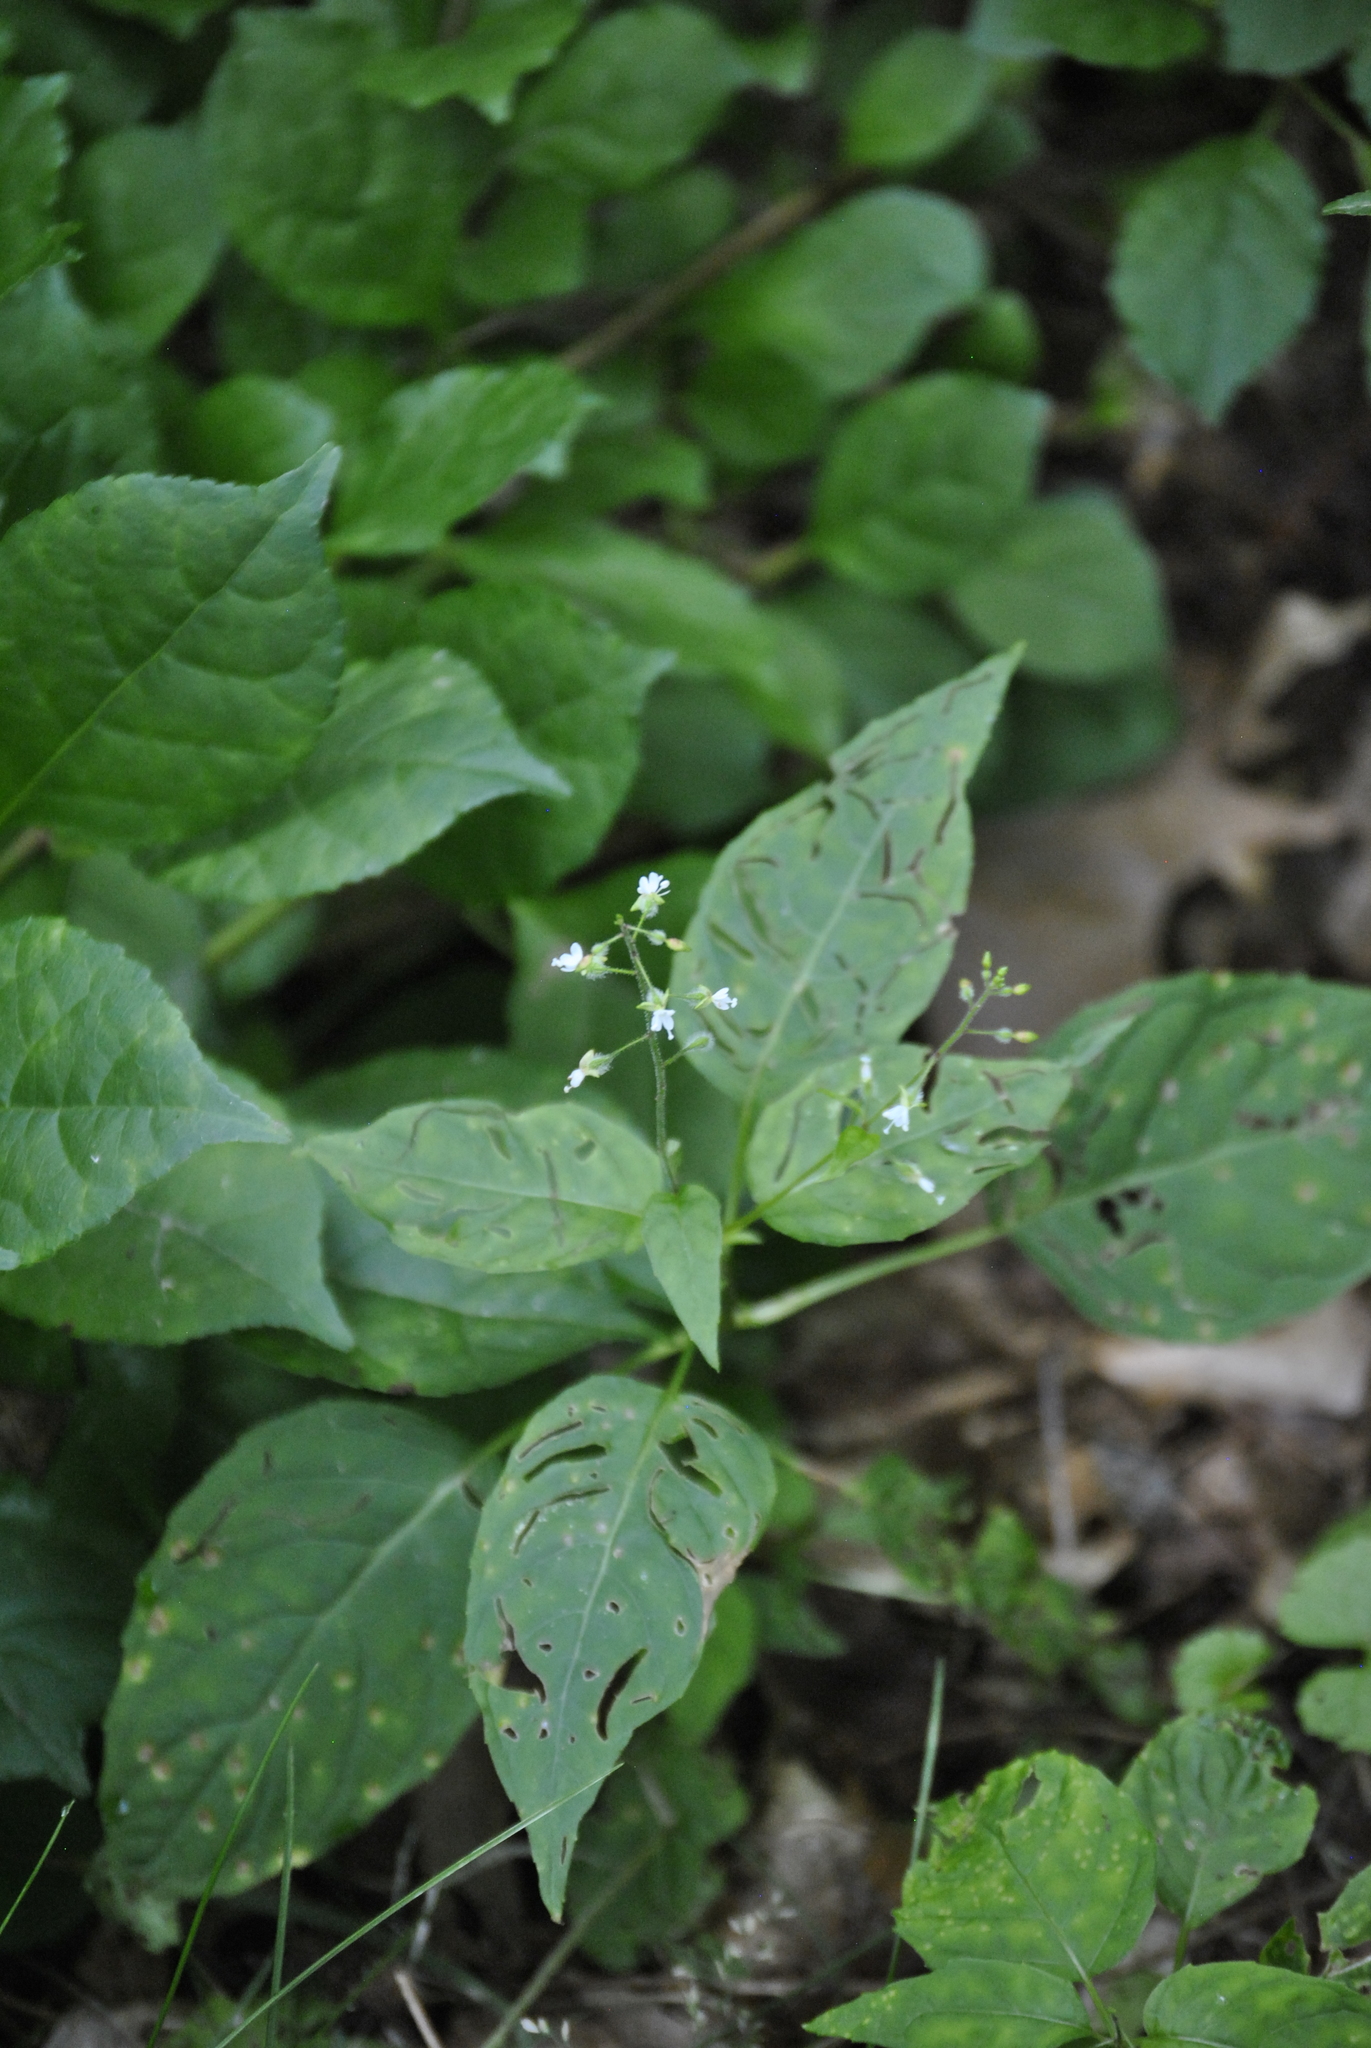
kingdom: Plantae
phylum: Tracheophyta
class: Magnoliopsida
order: Myrtales
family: Onagraceae
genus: Circaea
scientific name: Circaea canadensis
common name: Broad-leaved enchanter's nightshade
